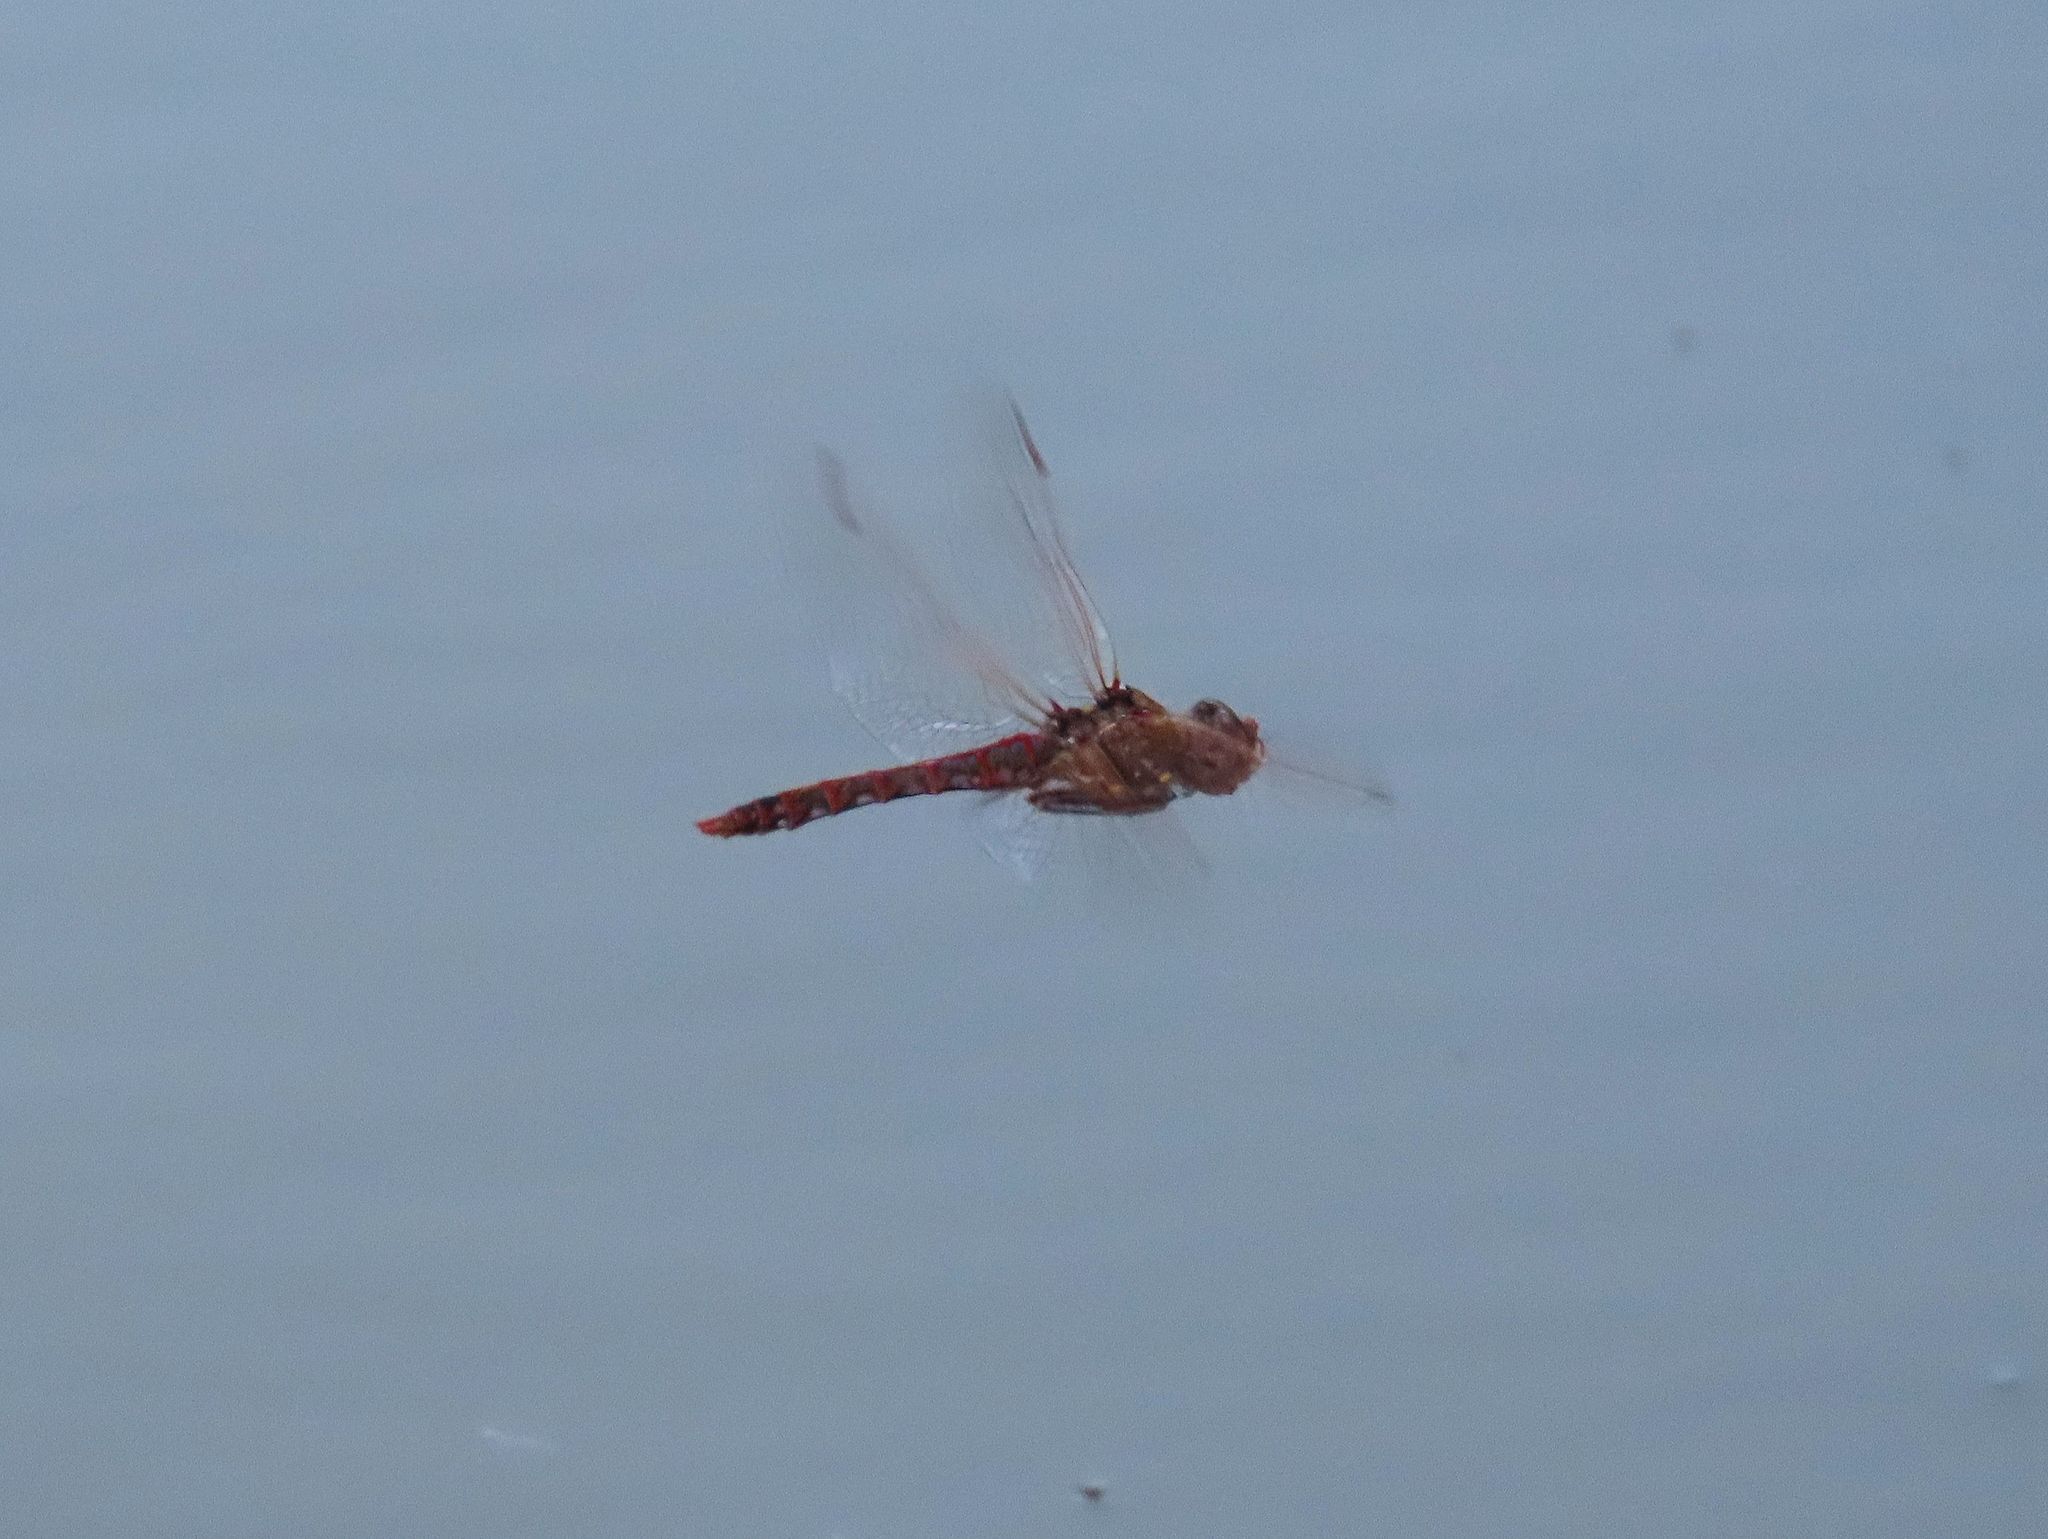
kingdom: Animalia
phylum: Arthropoda
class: Insecta
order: Odonata
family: Libellulidae
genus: Sympetrum
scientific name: Sympetrum corruptum
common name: Variegated meadowhawk
